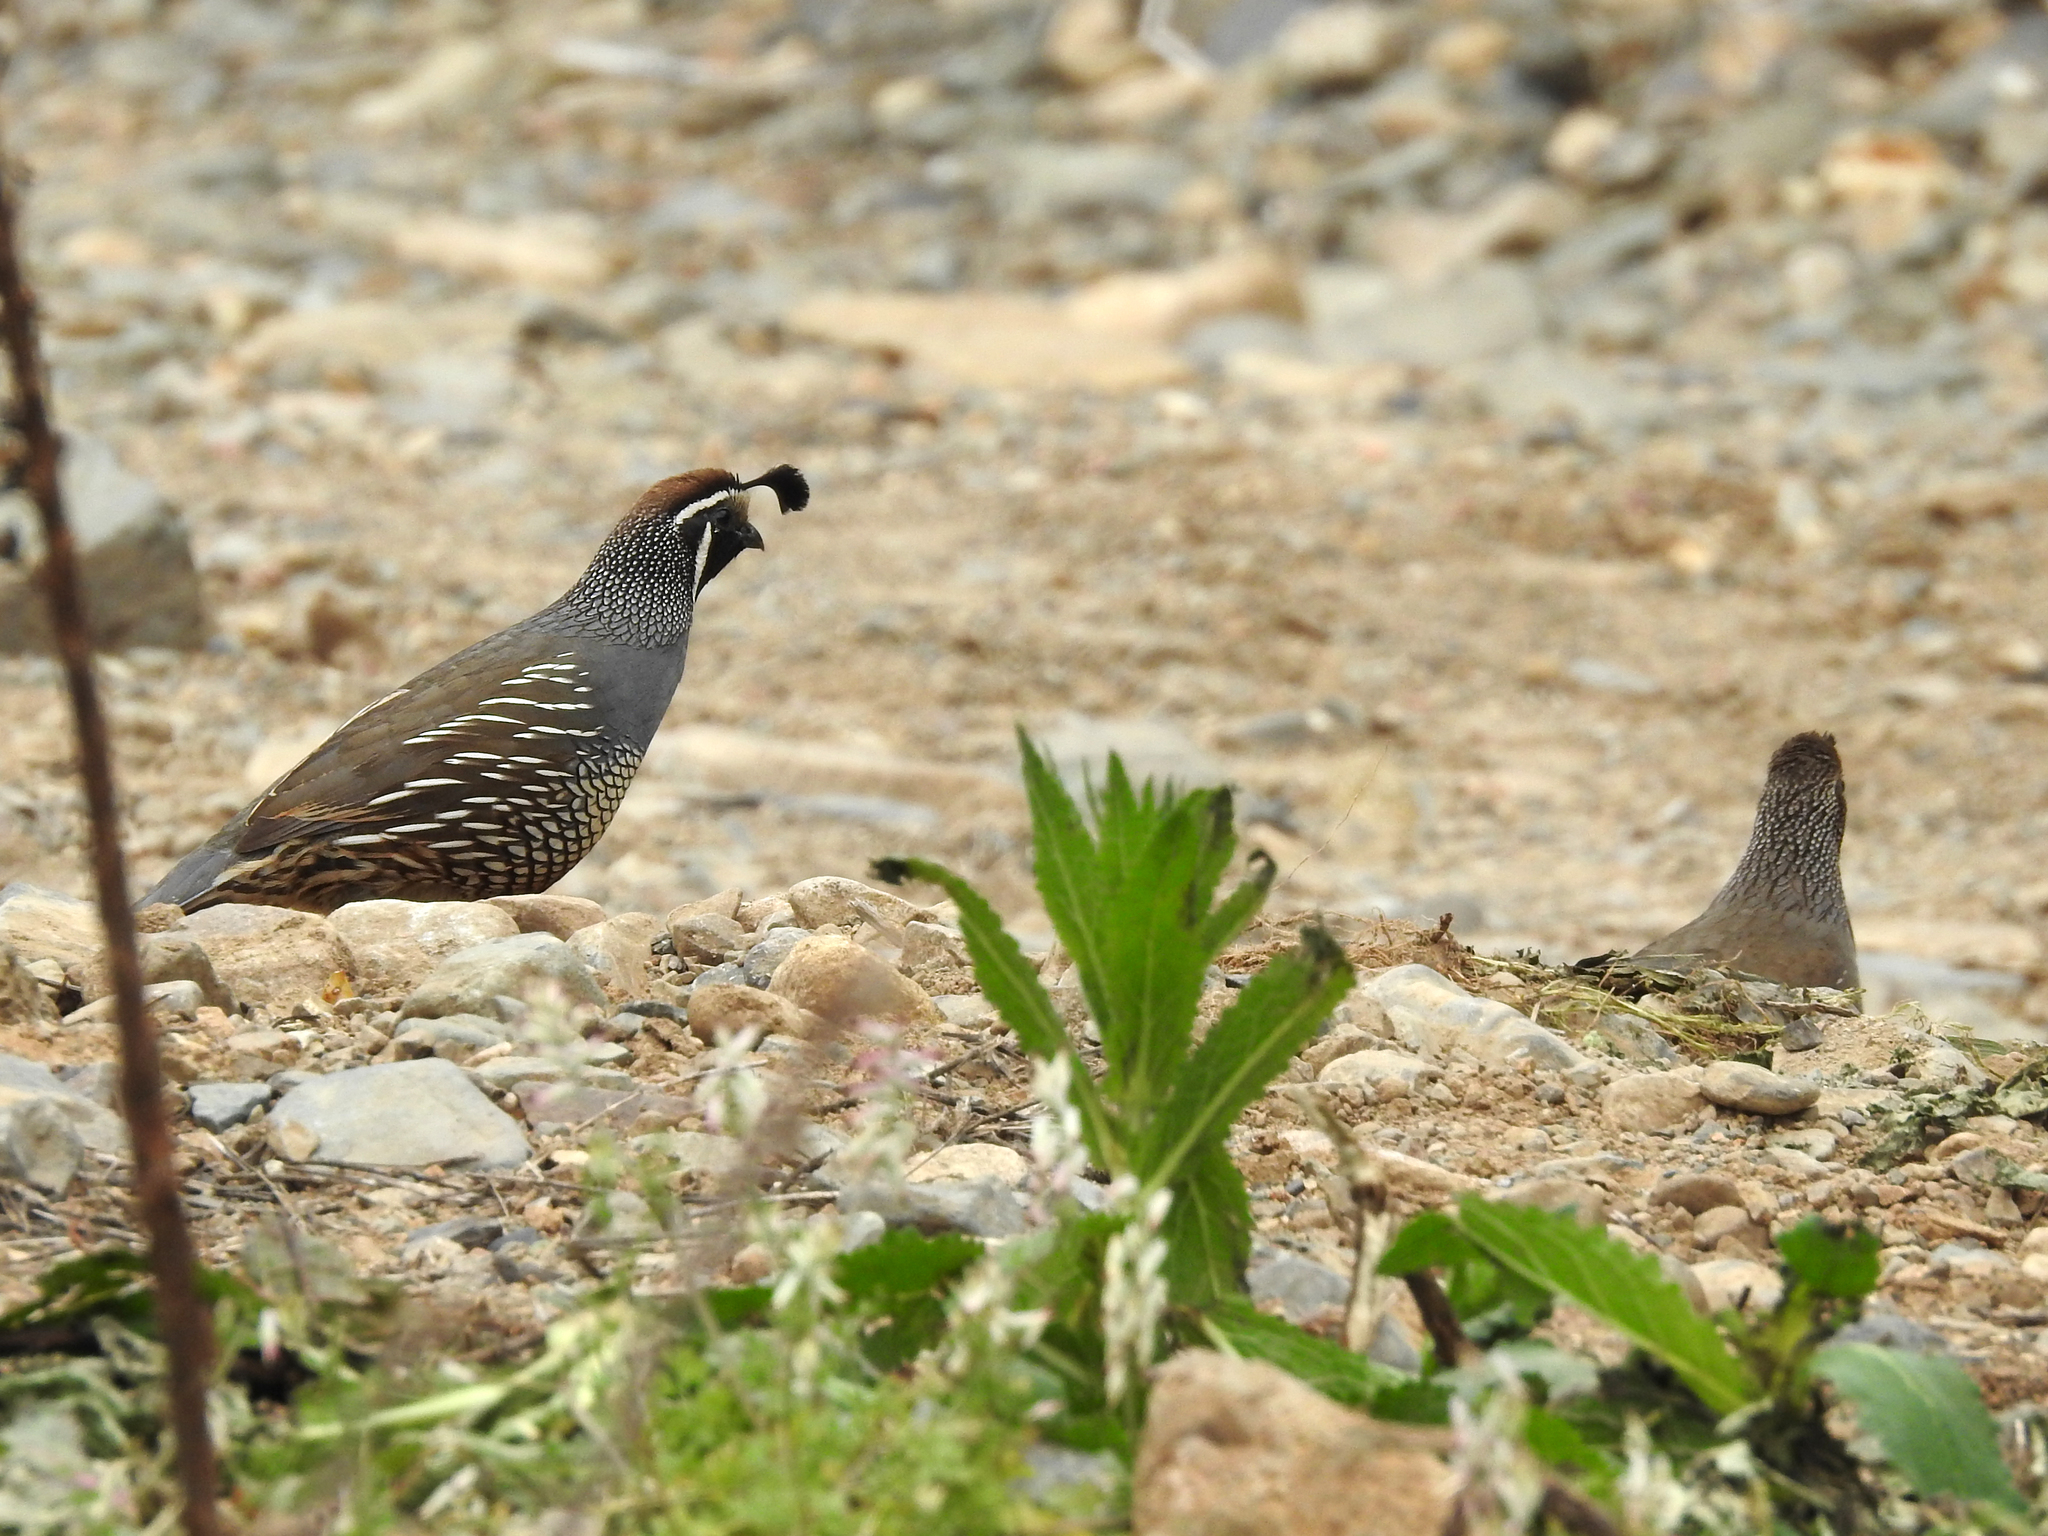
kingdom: Animalia
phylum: Chordata
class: Aves
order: Galliformes
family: Odontophoridae
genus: Callipepla
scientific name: Callipepla californica
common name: California quail
